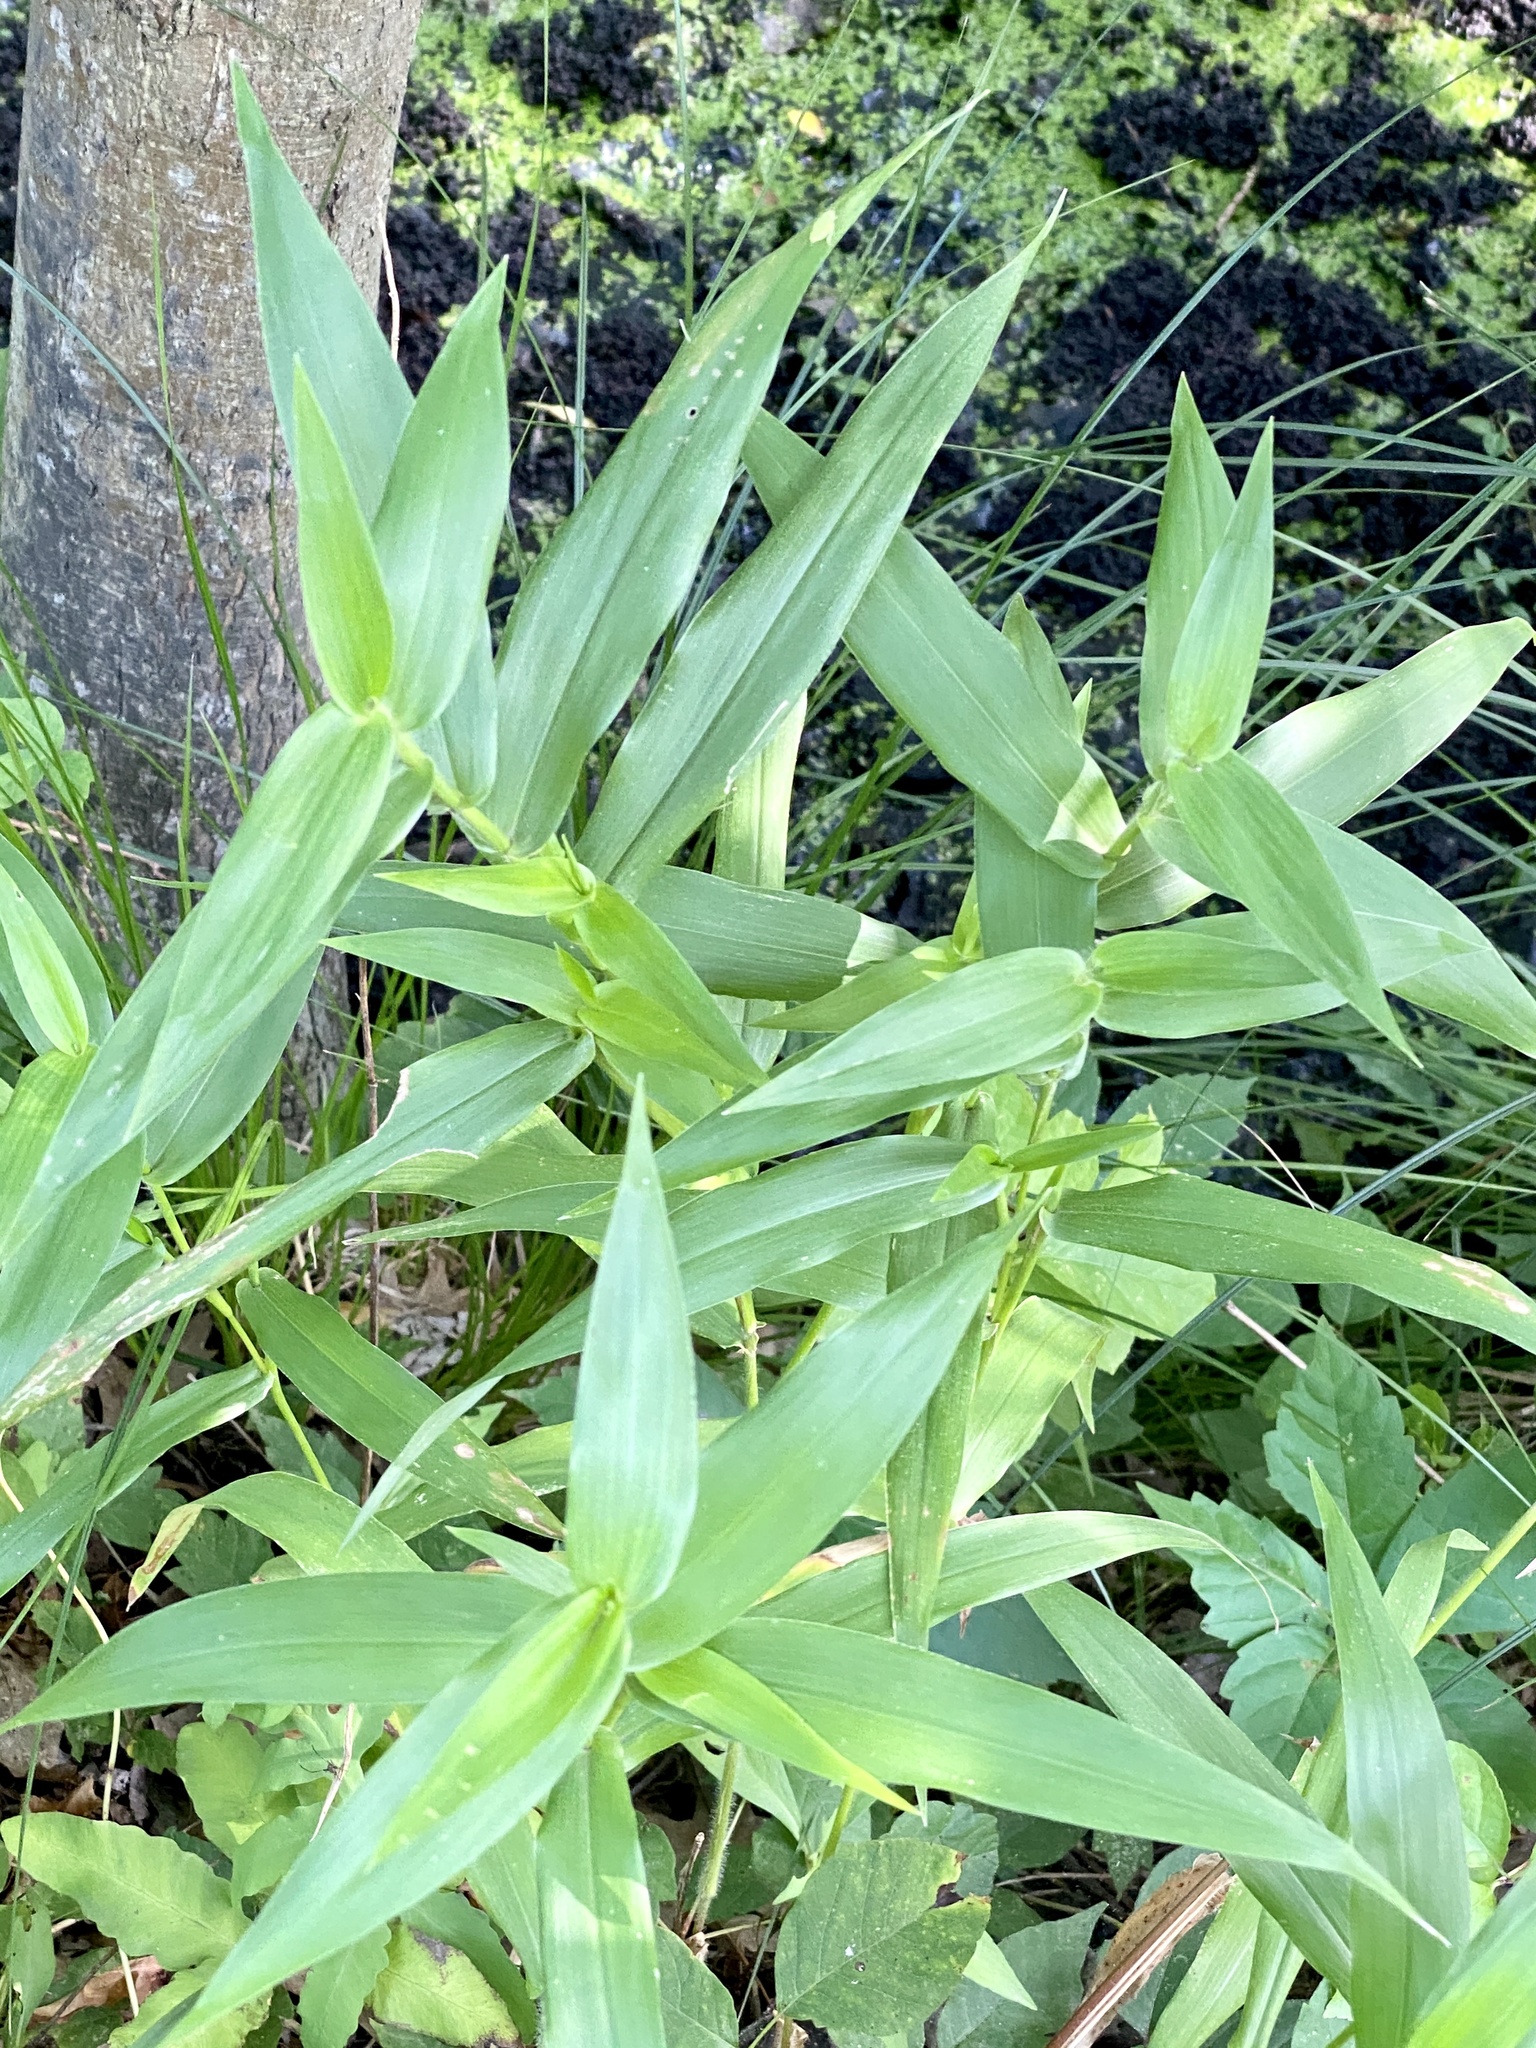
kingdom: Plantae
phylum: Tracheophyta
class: Liliopsida
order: Poales
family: Poaceae
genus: Dichanthelium
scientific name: Dichanthelium clandestinum
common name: Deer-tongue grass
